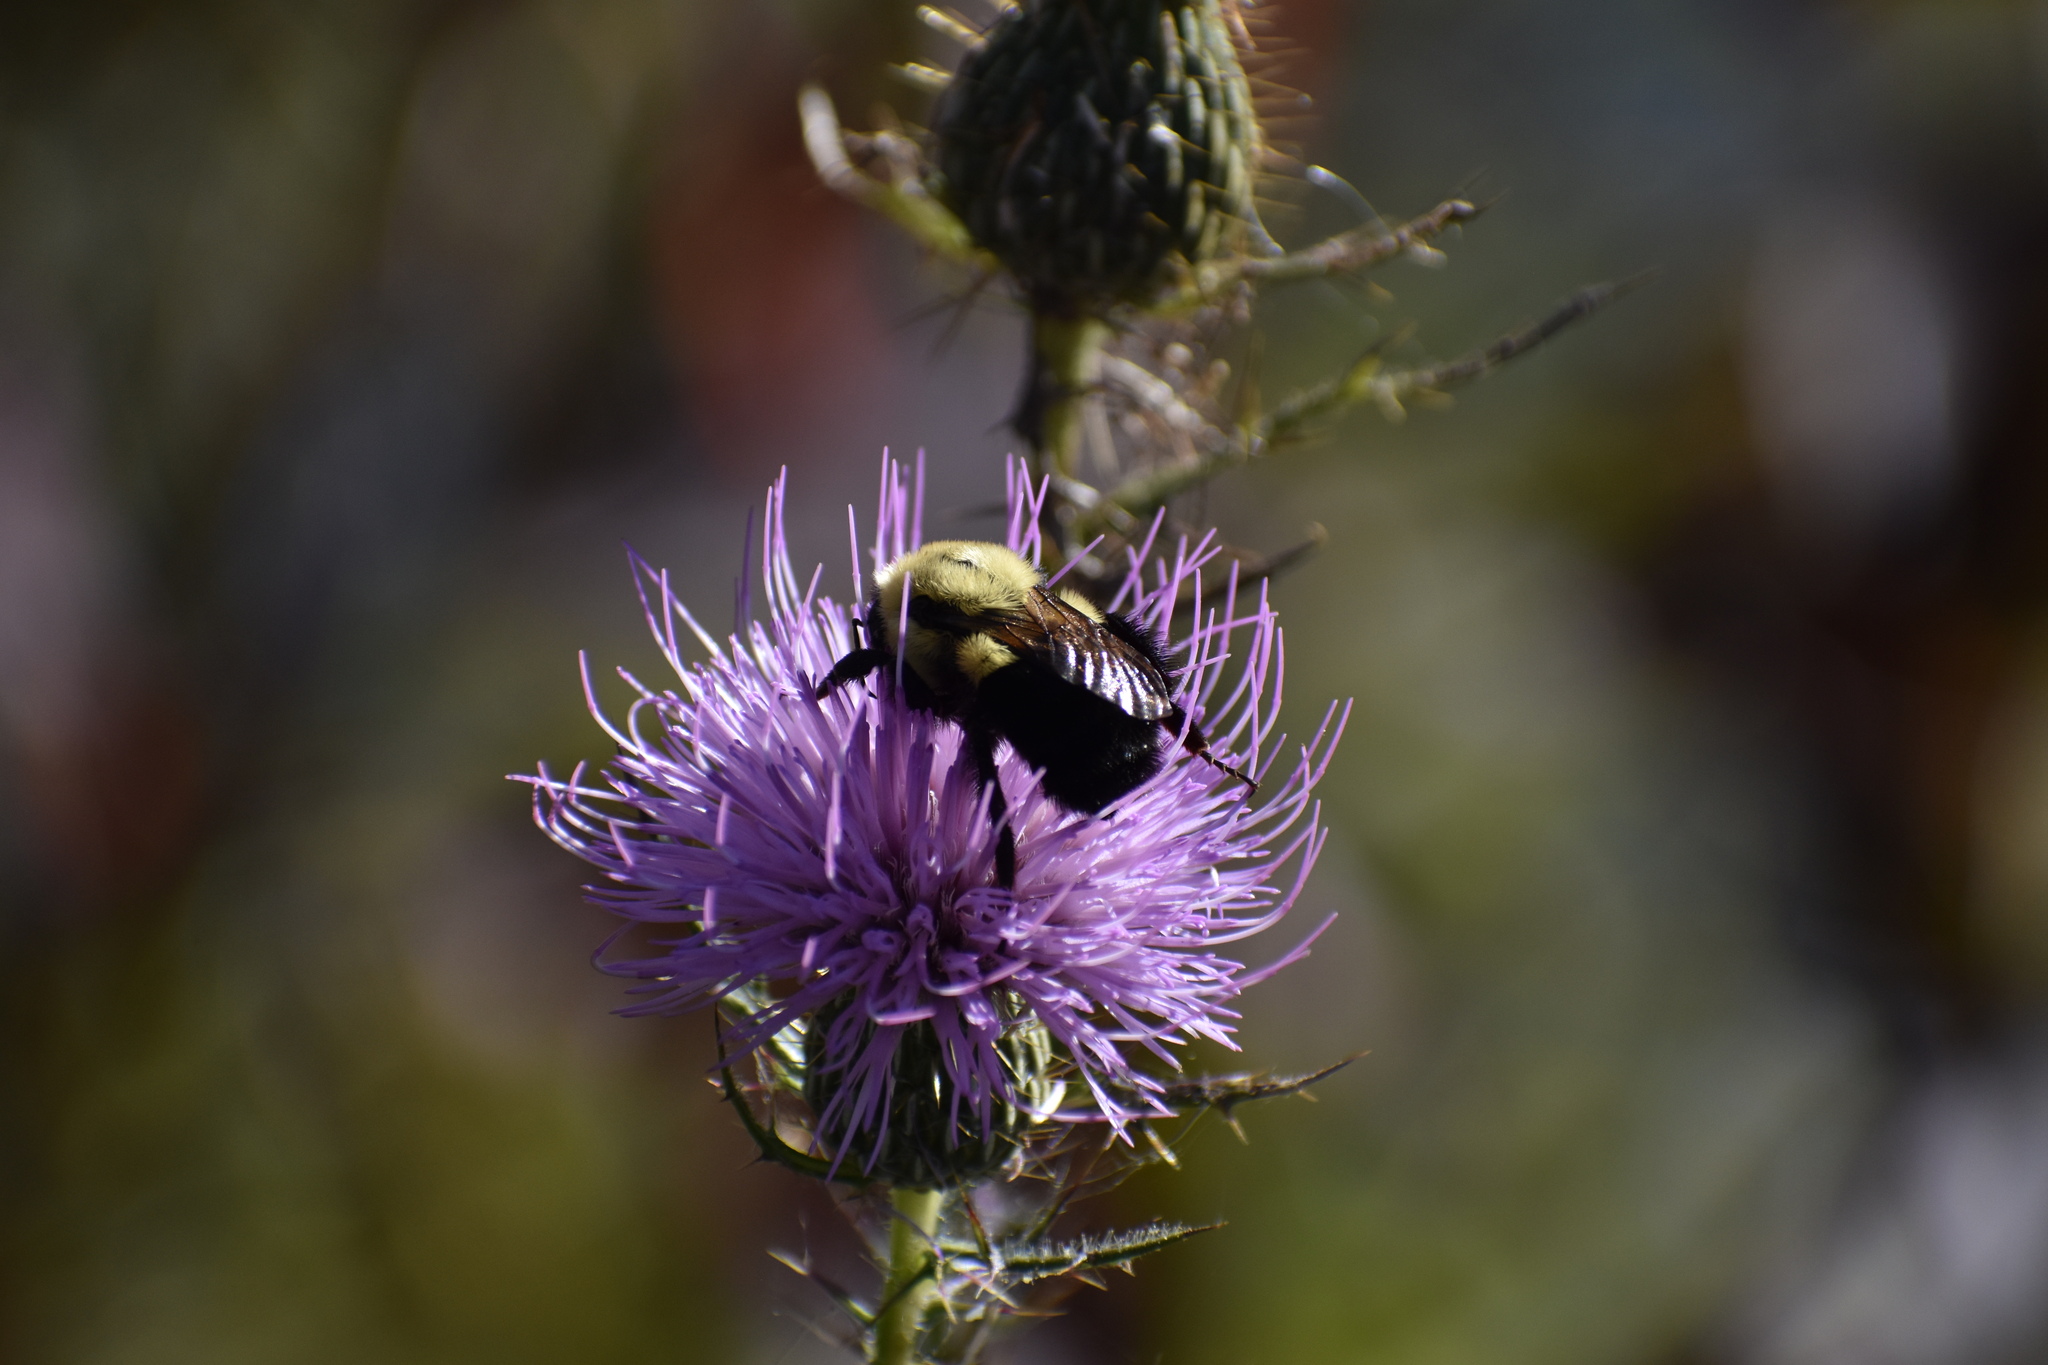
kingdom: Animalia
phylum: Arthropoda
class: Insecta
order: Hymenoptera
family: Apidae
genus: Bombus
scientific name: Bombus impatiens
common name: Common eastern bumble bee
